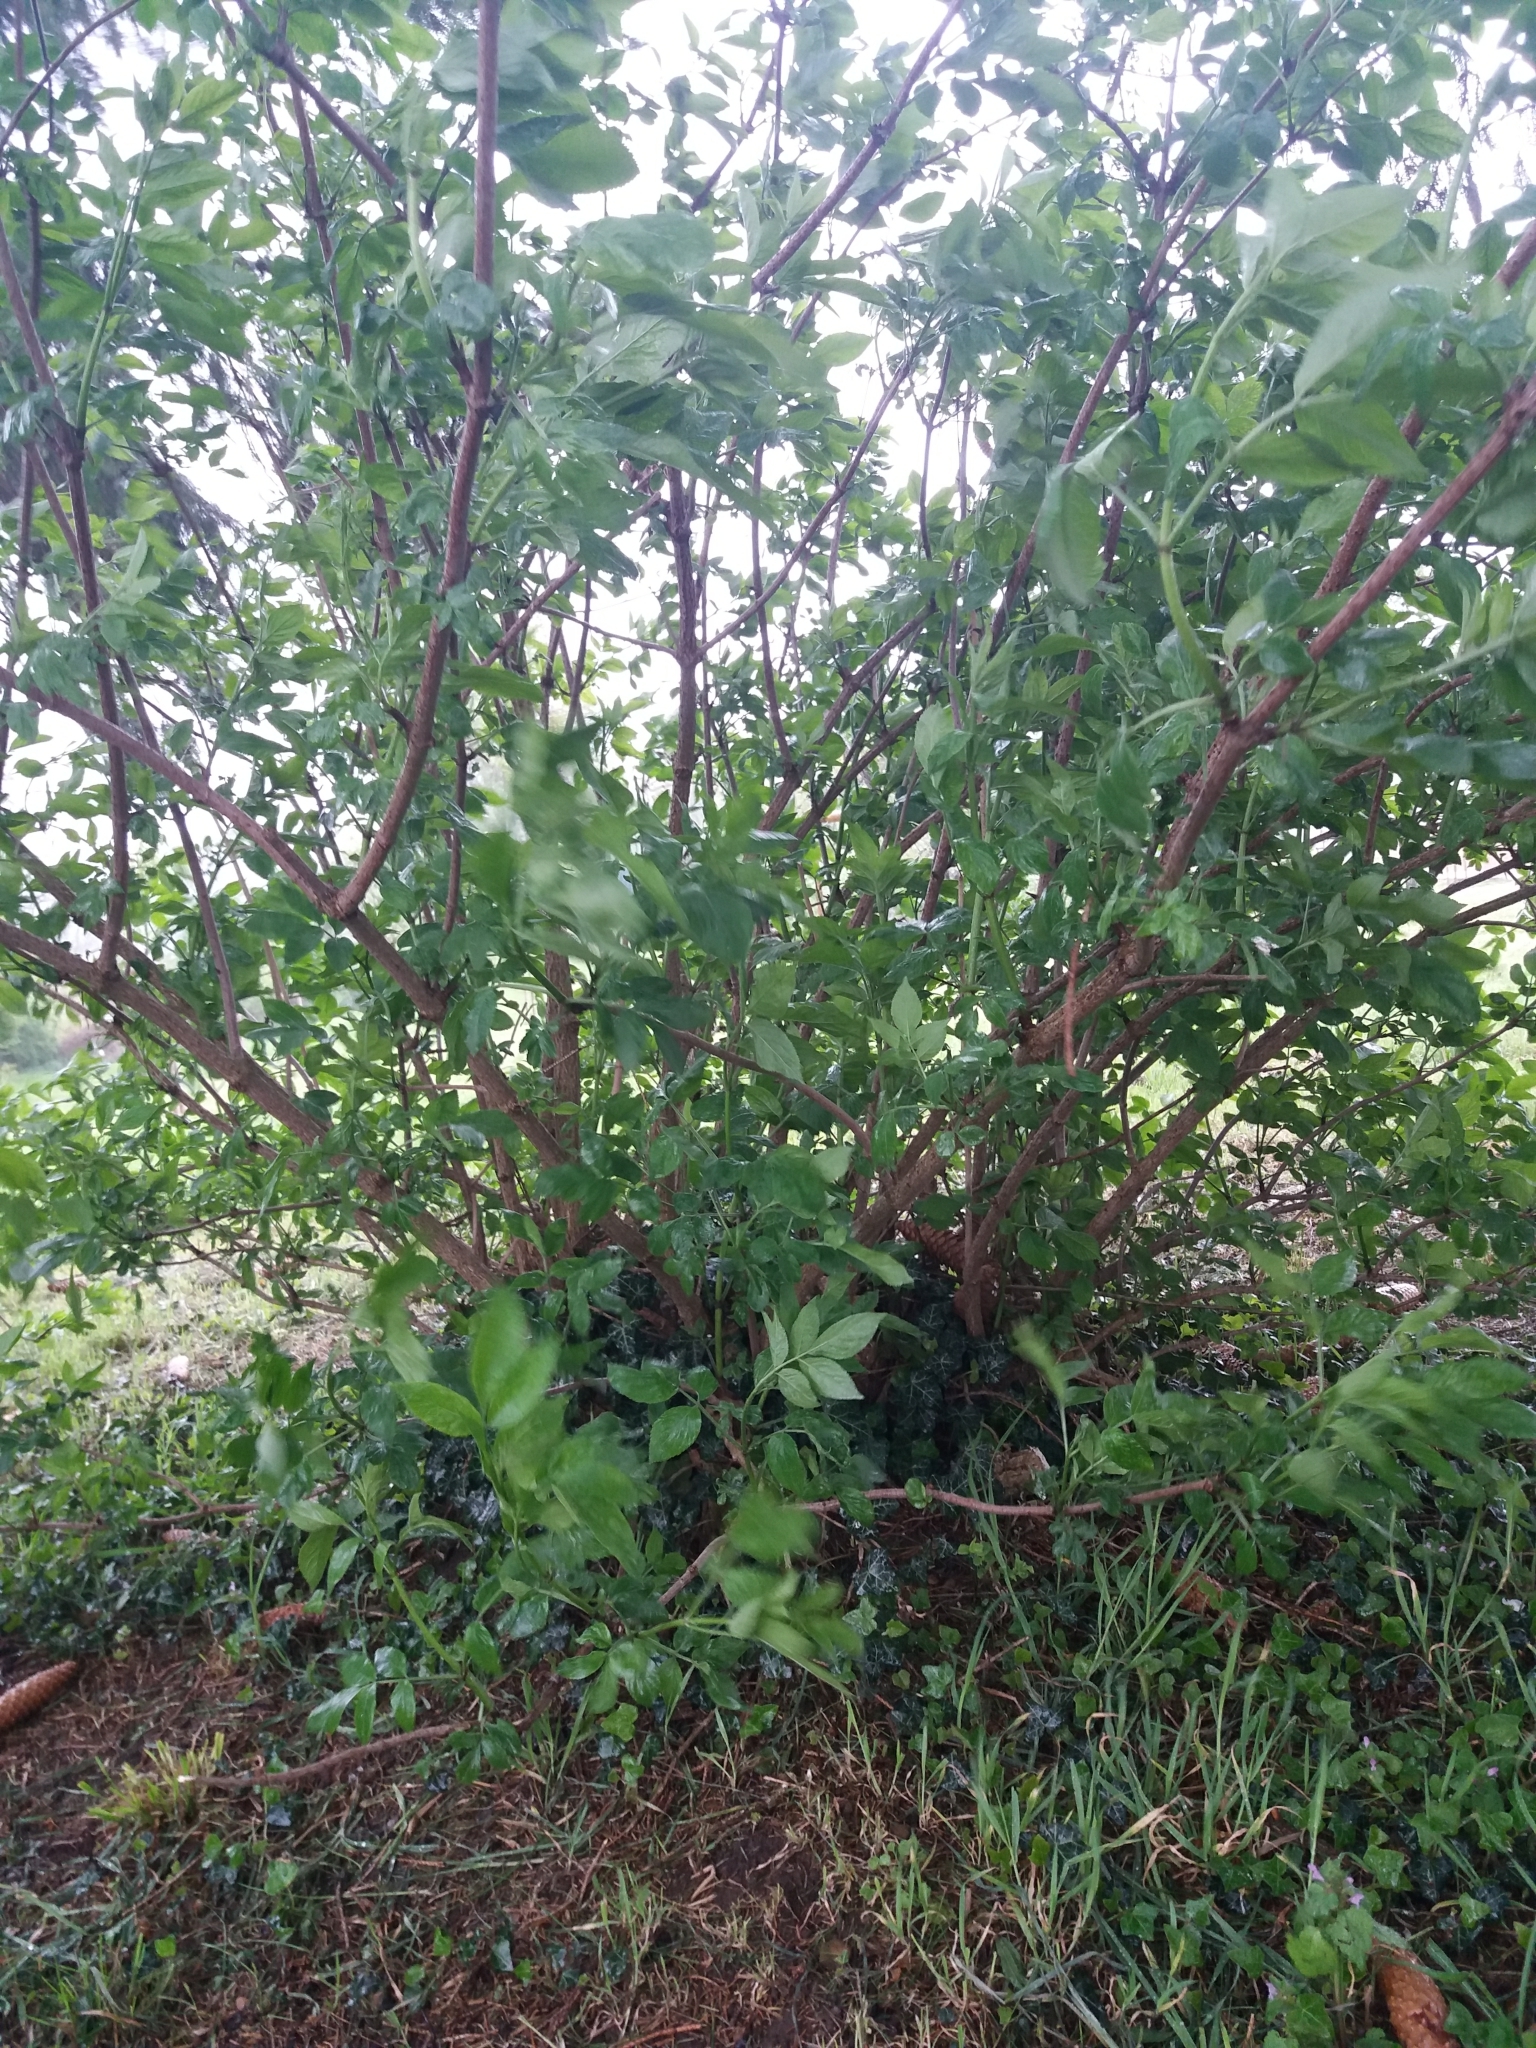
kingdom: Plantae
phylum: Tracheophyta
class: Magnoliopsida
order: Dipsacales
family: Viburnaceae
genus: Sambucus
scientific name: Sambucus nigra
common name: Elder
